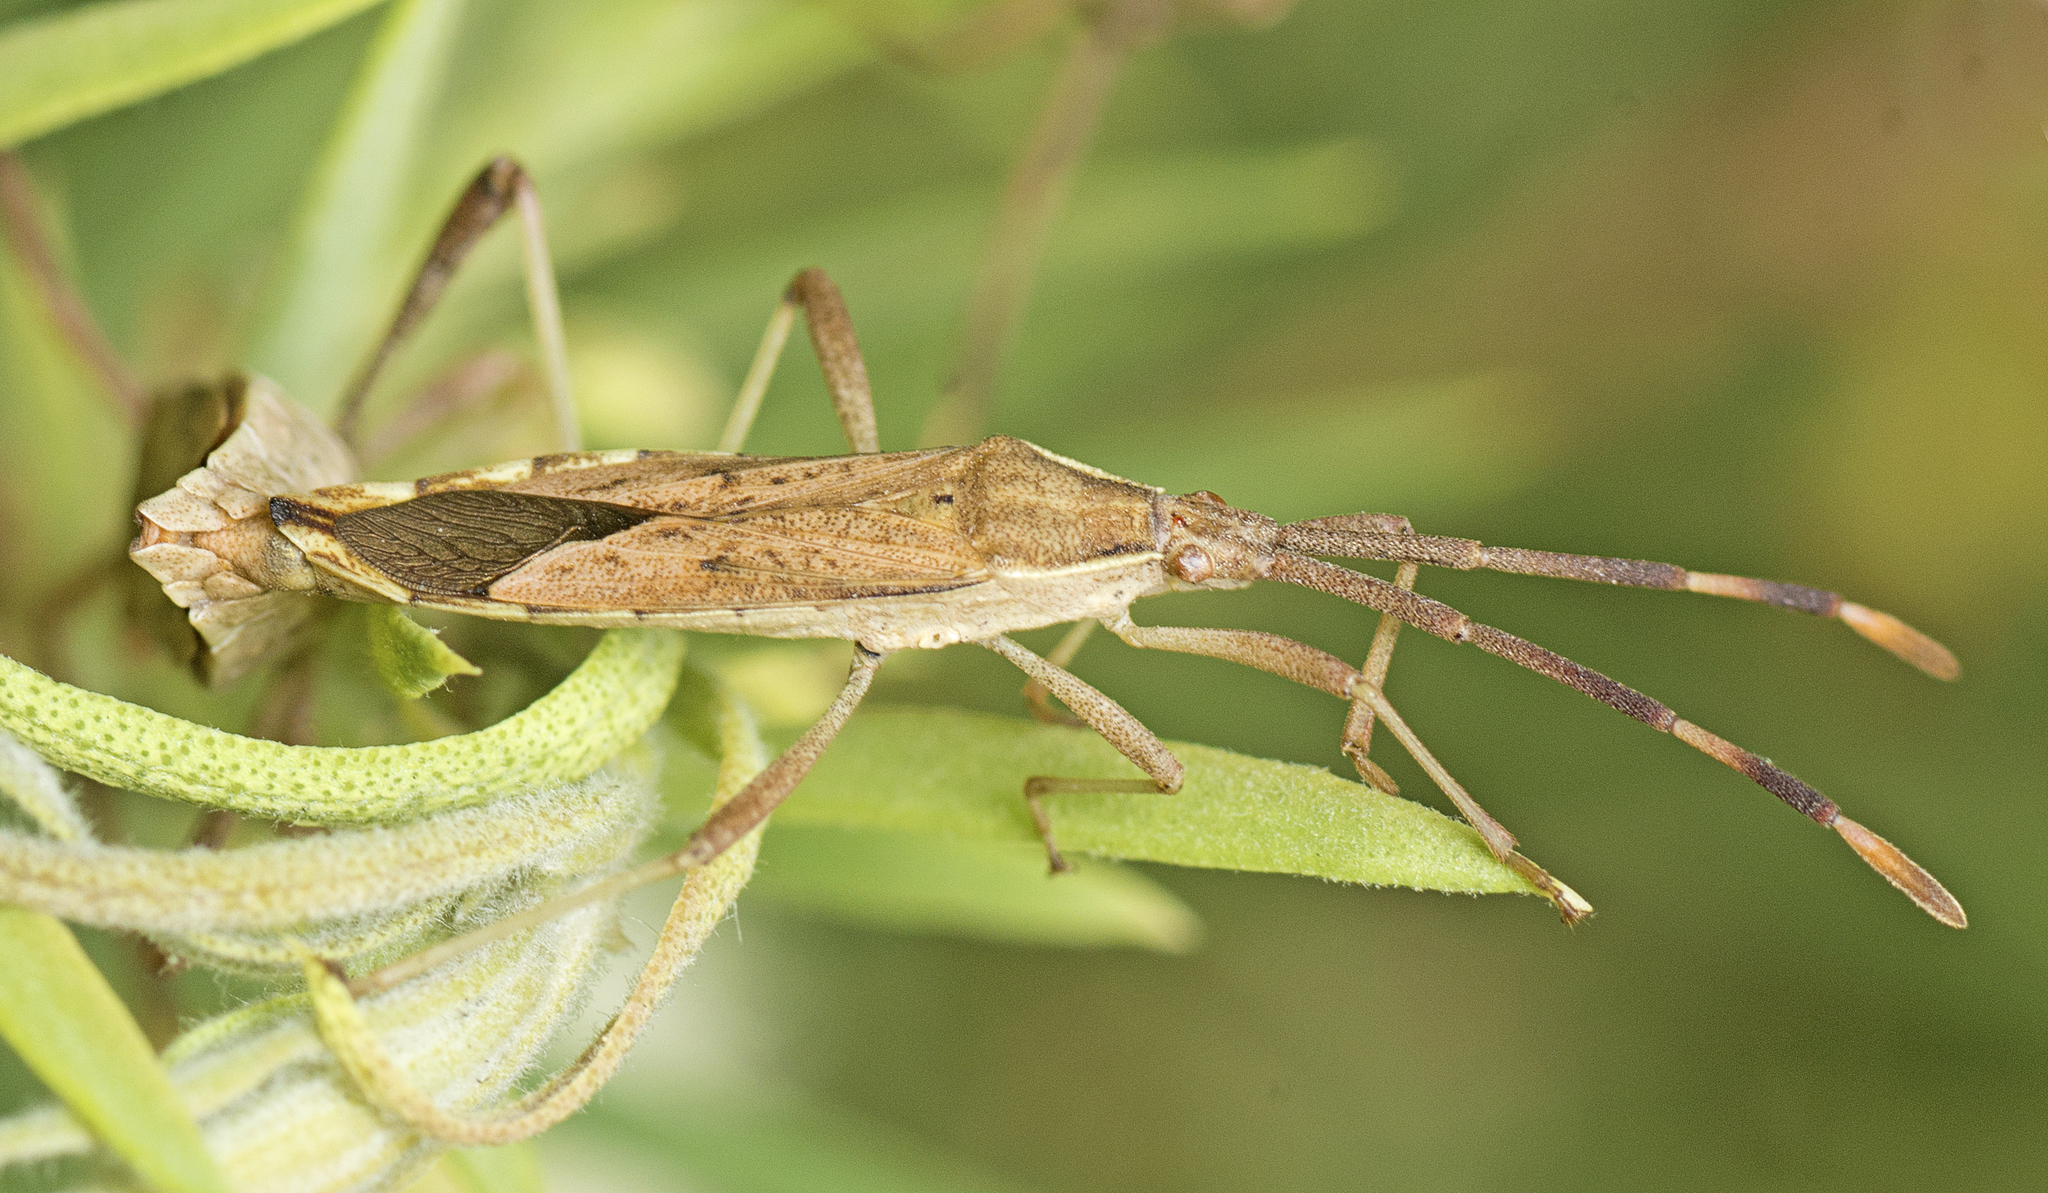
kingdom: Animalia
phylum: Arthropoda
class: Insecta
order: Hemiptera
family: Coreidae
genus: Pomponatius
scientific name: Pomponatius luridus
